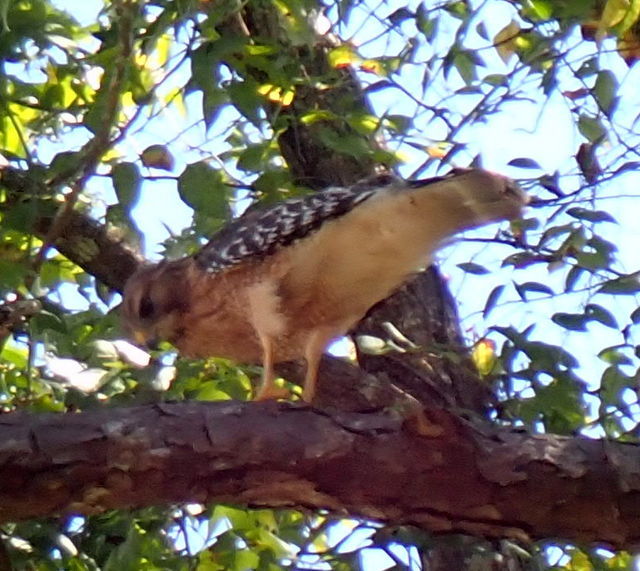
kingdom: Animalia
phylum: Chordata
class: Aves
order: Accipitriformes
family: Accipitridae
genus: Buteo
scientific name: Buteo lineatus
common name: Red-shouldered hawk
